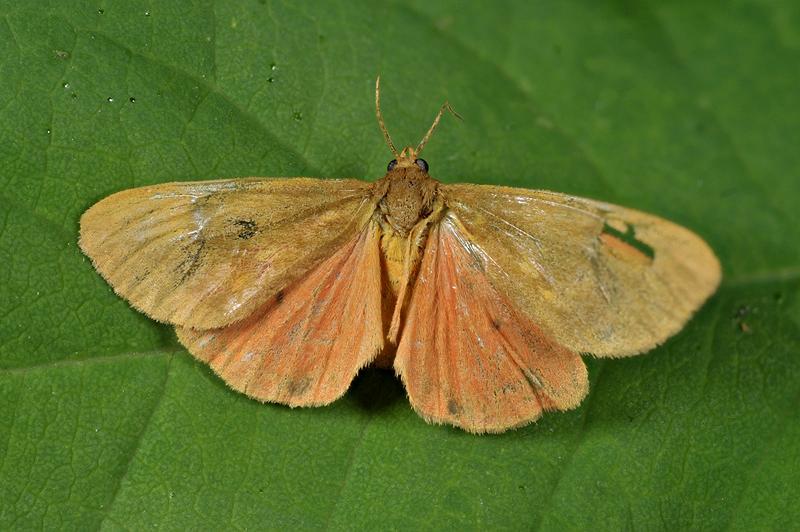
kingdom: Animalia
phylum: Arthropoda
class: Insecta
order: Lepidoptera
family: Erebidae
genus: Virbia
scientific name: Virbia immaculata
